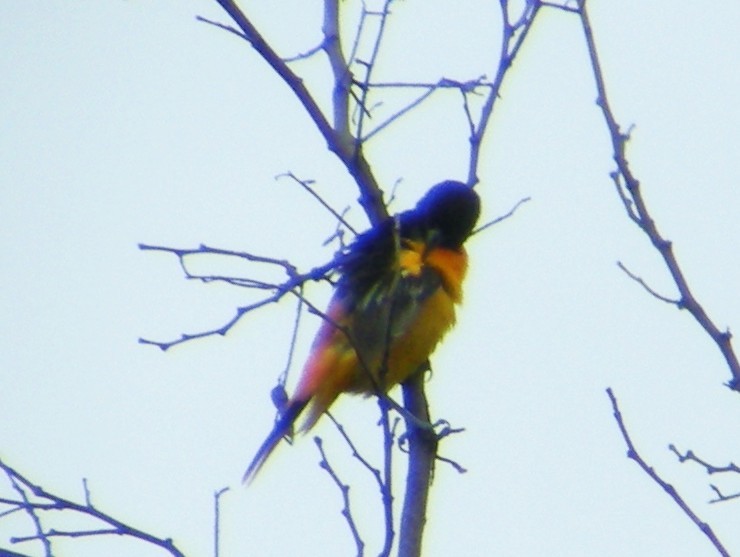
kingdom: Animalia
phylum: Chordata
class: Aves
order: Passeriformes
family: Icteridae
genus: Icterus
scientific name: Icterus galbula
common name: Baltimore oriole
